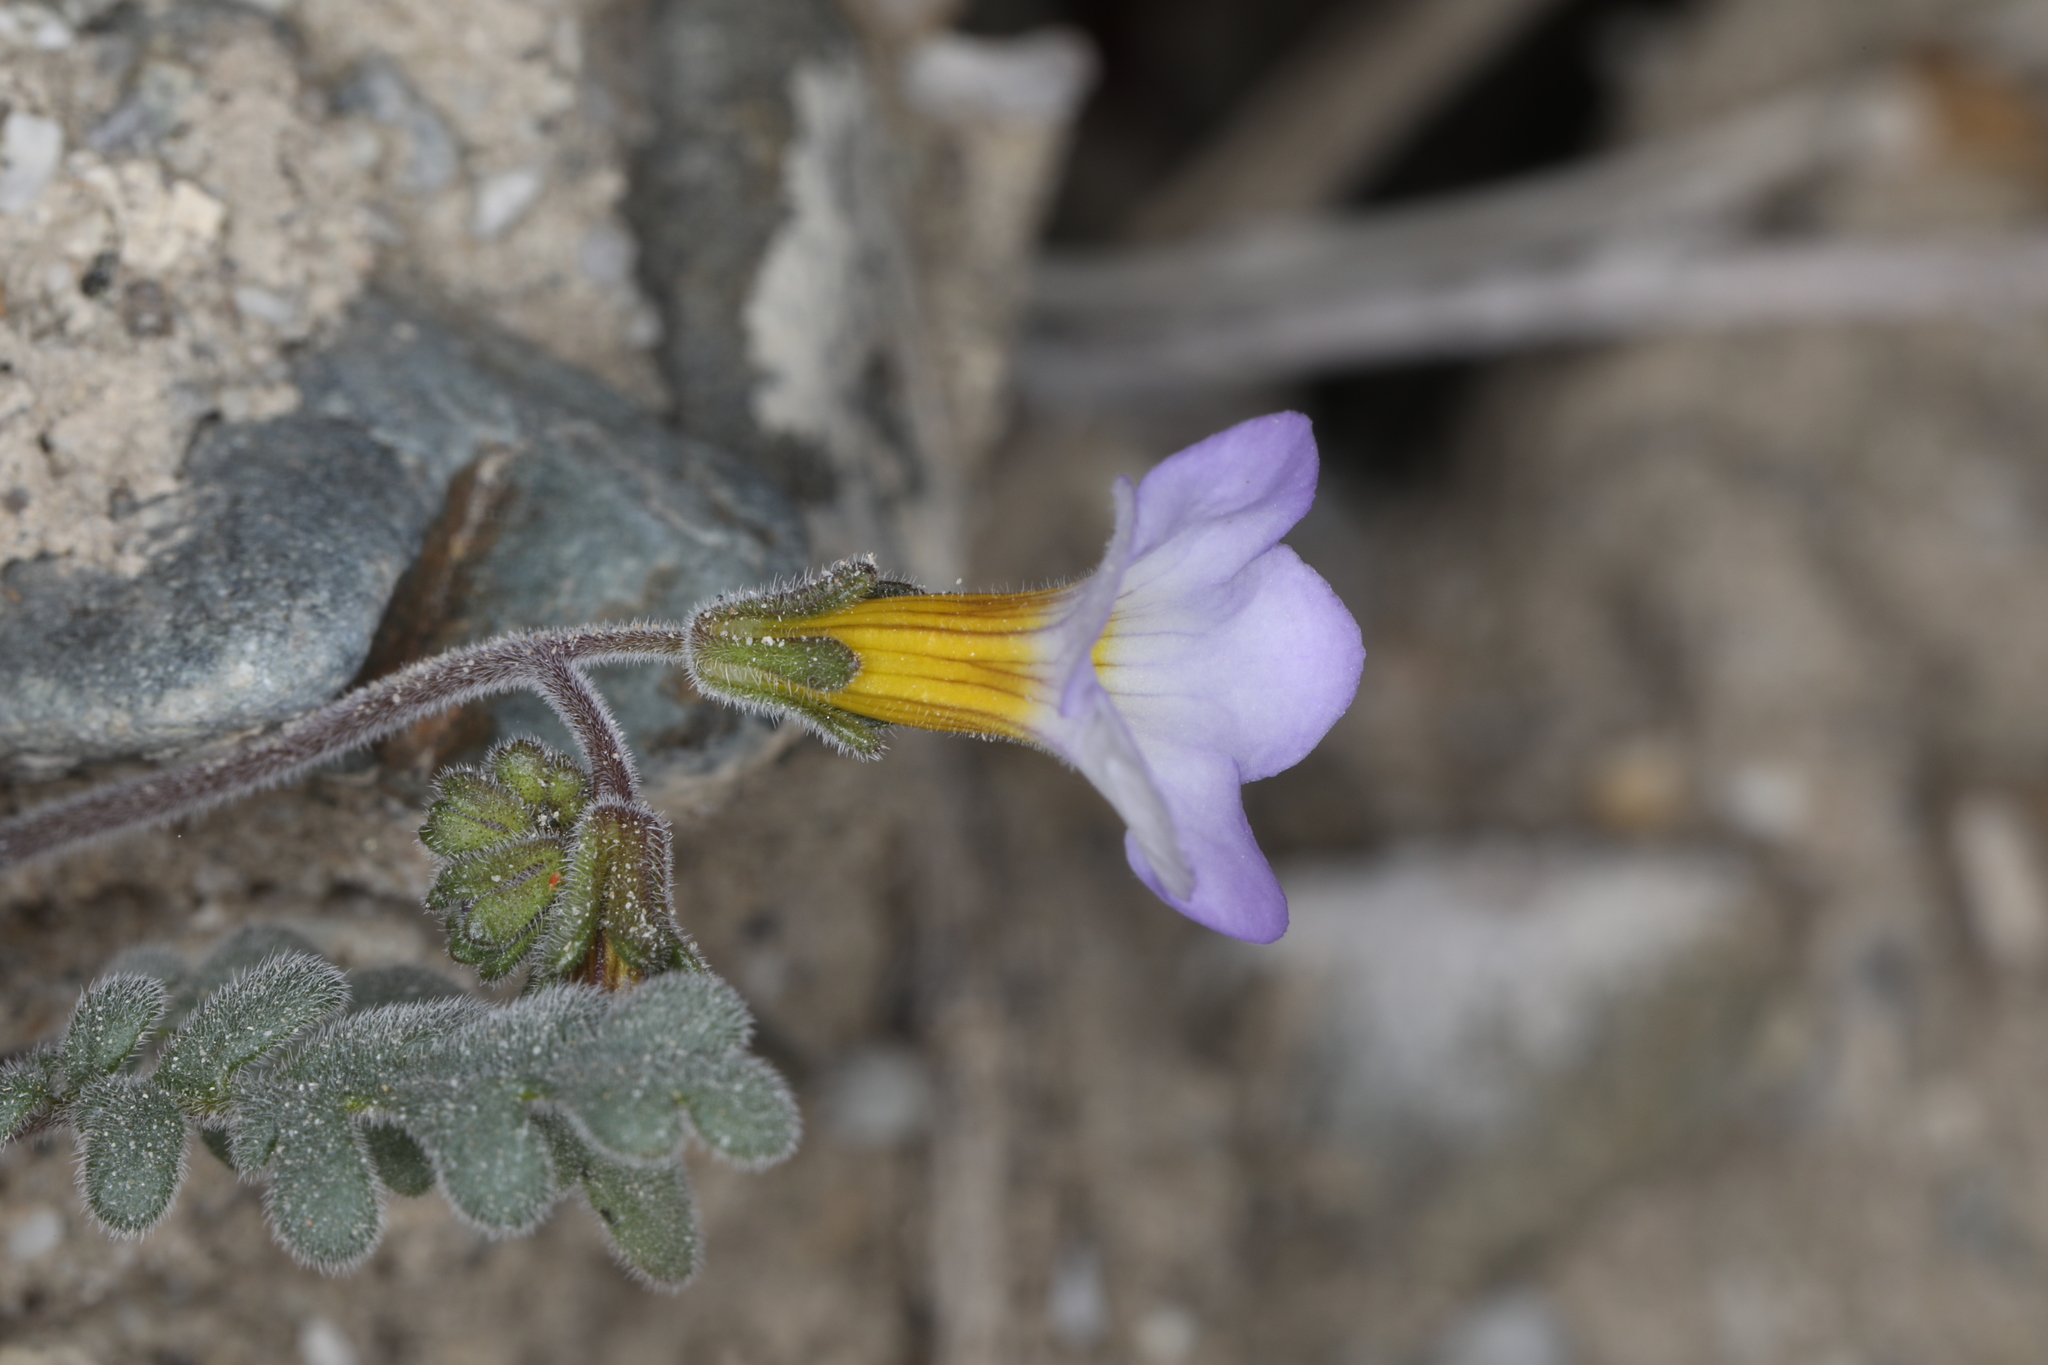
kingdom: Plantae
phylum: Tracheophyta
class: Magnoliopsida
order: Boraginales
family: Hydrophyllaceae
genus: Phacelia
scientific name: Phacelia fremontii
